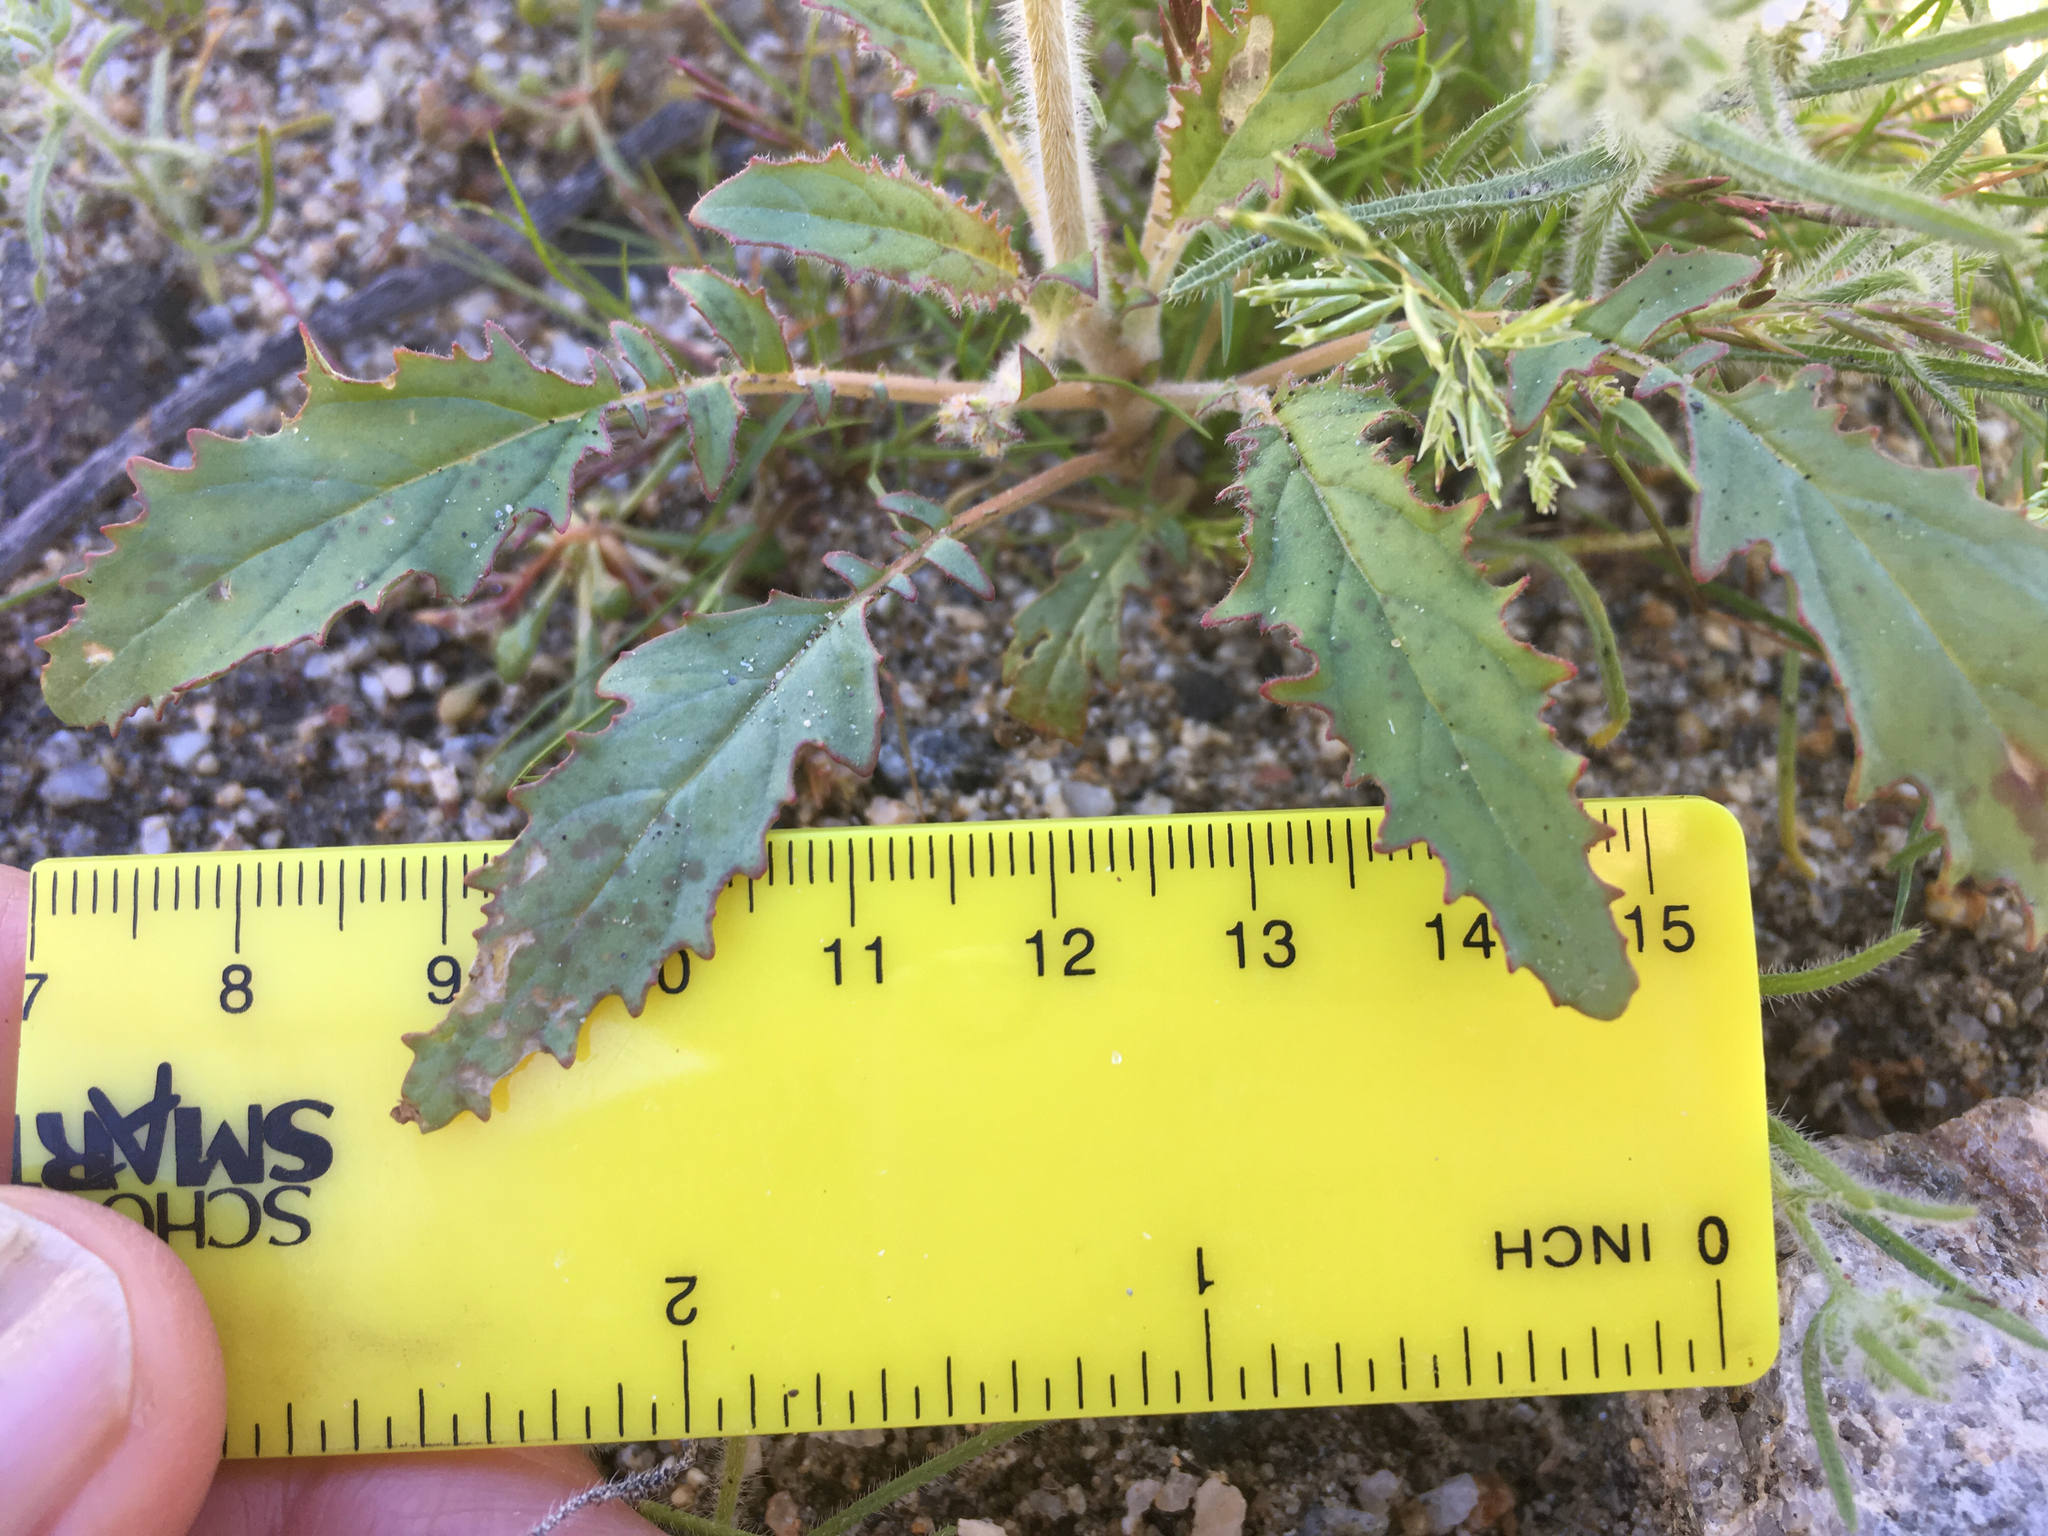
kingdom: Plantae
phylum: Tracheophyta
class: Magnoliopsida
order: Myrtales
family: Onagraceae
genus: Chylismia
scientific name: Chylismia claviformis
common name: Browneyes
